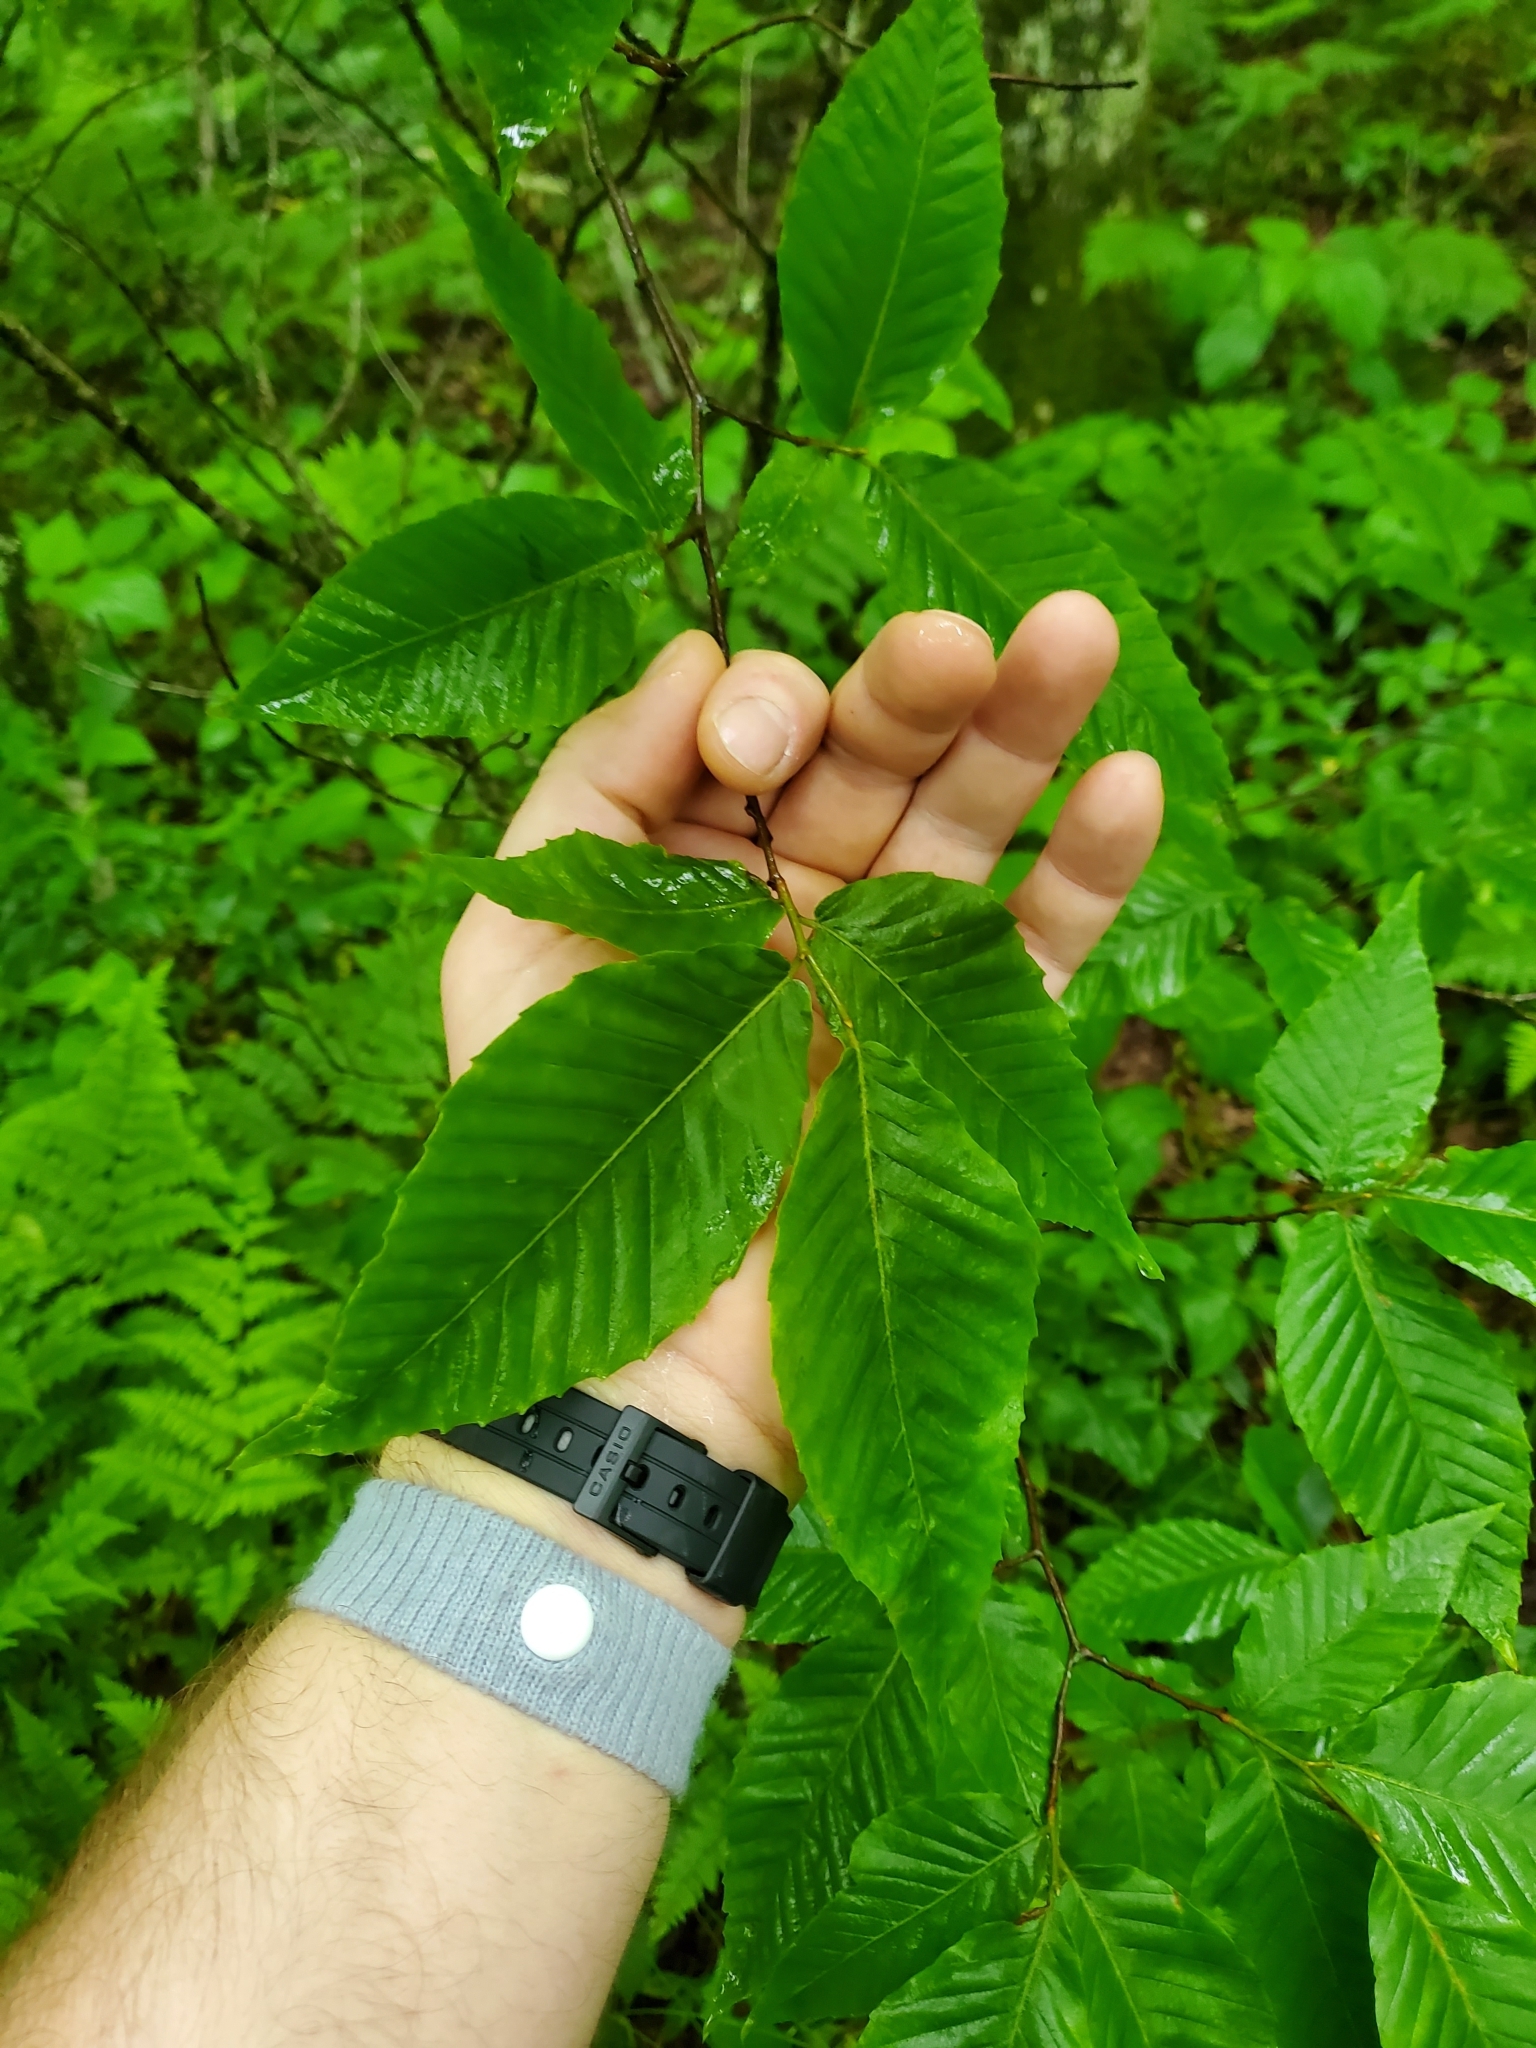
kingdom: Plantae
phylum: Tracheophyta
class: Magnoliopsida
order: Fagales
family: Fagaceae
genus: Fagus
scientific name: Fagus grandifolia
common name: American beech
